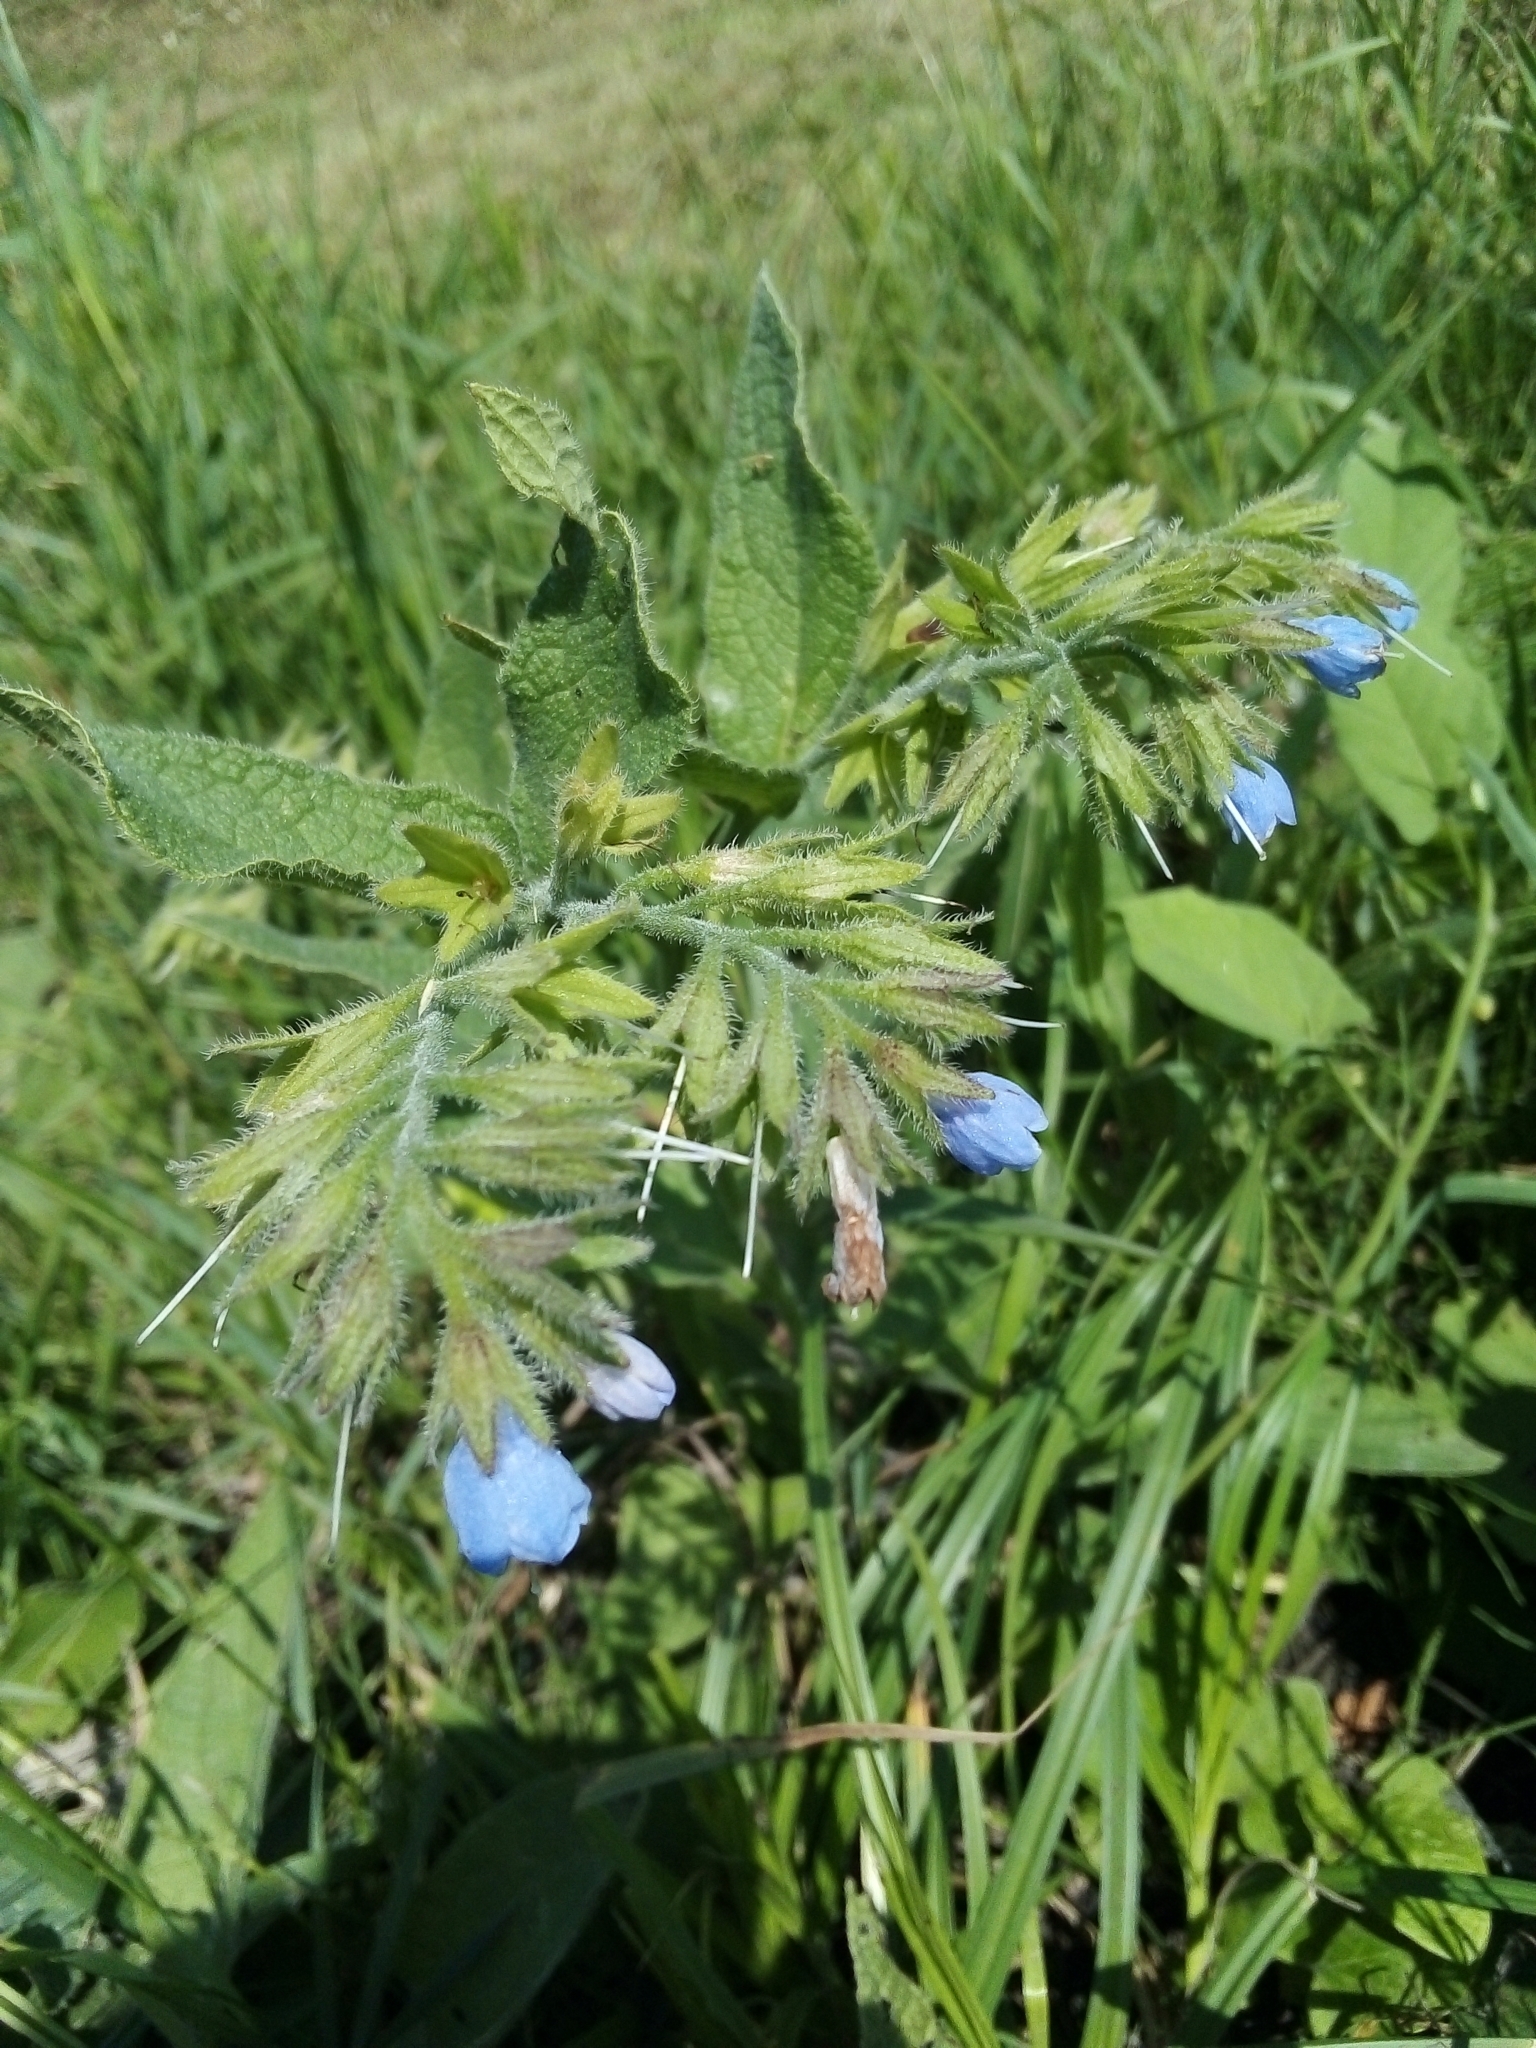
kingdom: Plantae
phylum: Tracheophyta
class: Magnoliopsida
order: Boraginales
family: Boraginaceae
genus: Symphytum
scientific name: Symphytum caucasicum
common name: Caucasian comfrey
